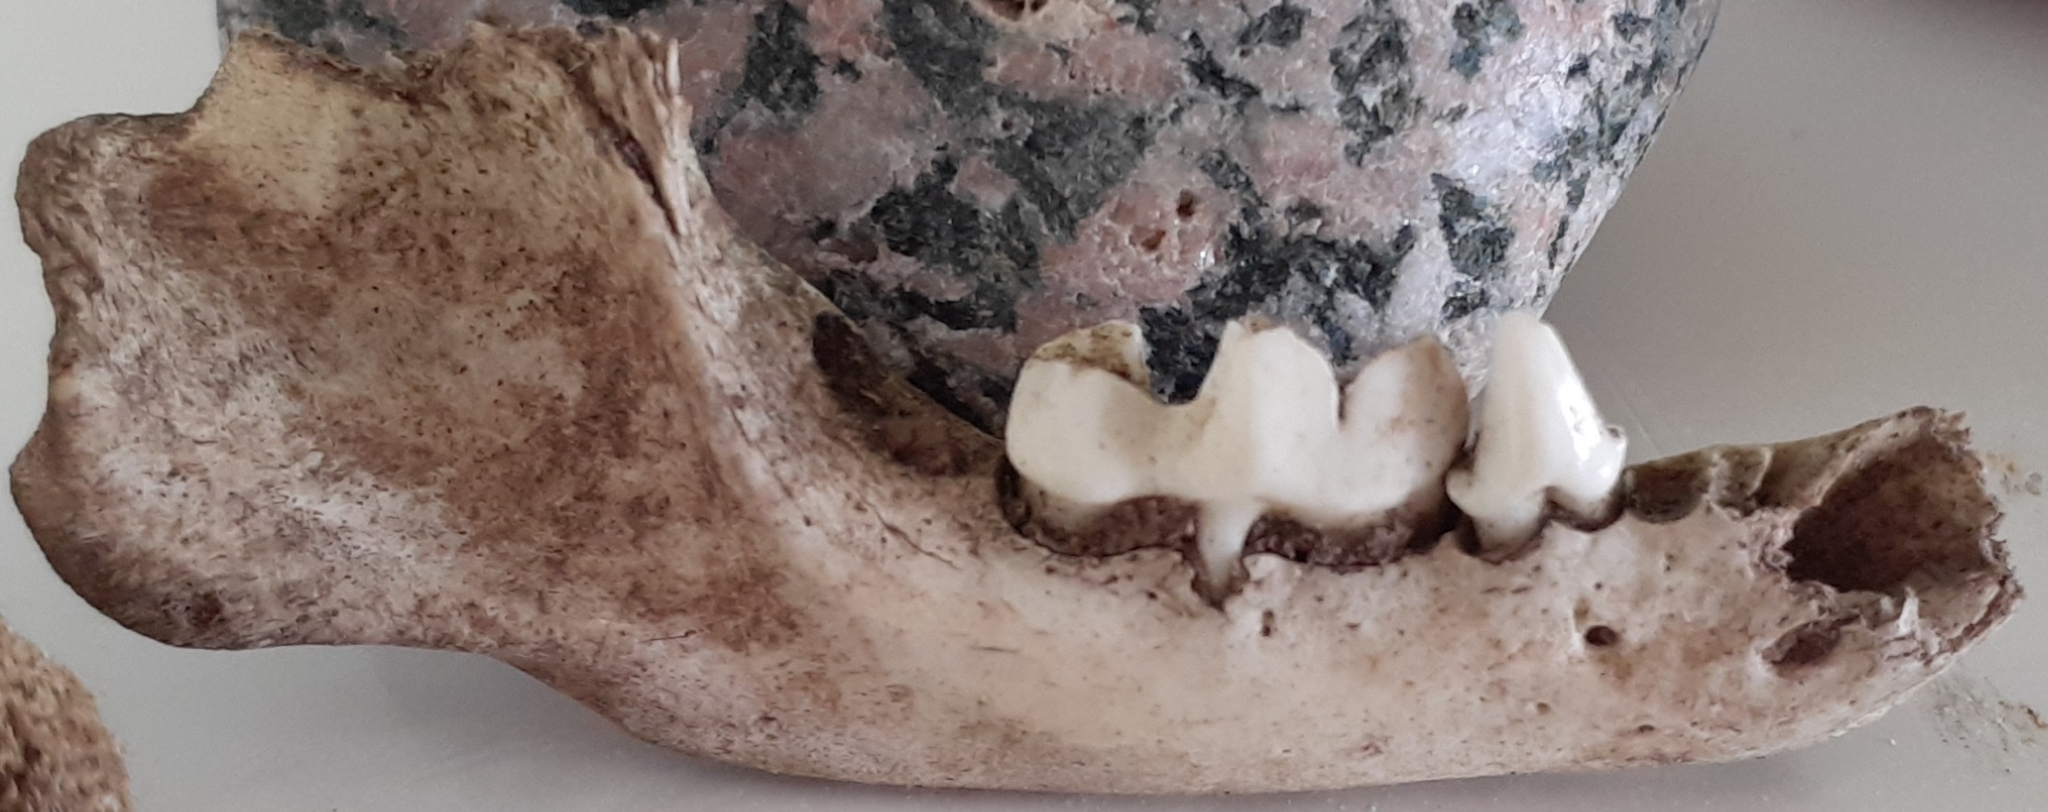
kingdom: Animalia
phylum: Chordata
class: Mammalia
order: Carnivora
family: Mephitidae
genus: Mephitis
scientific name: Mephitis mephitis
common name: Striped skunk
